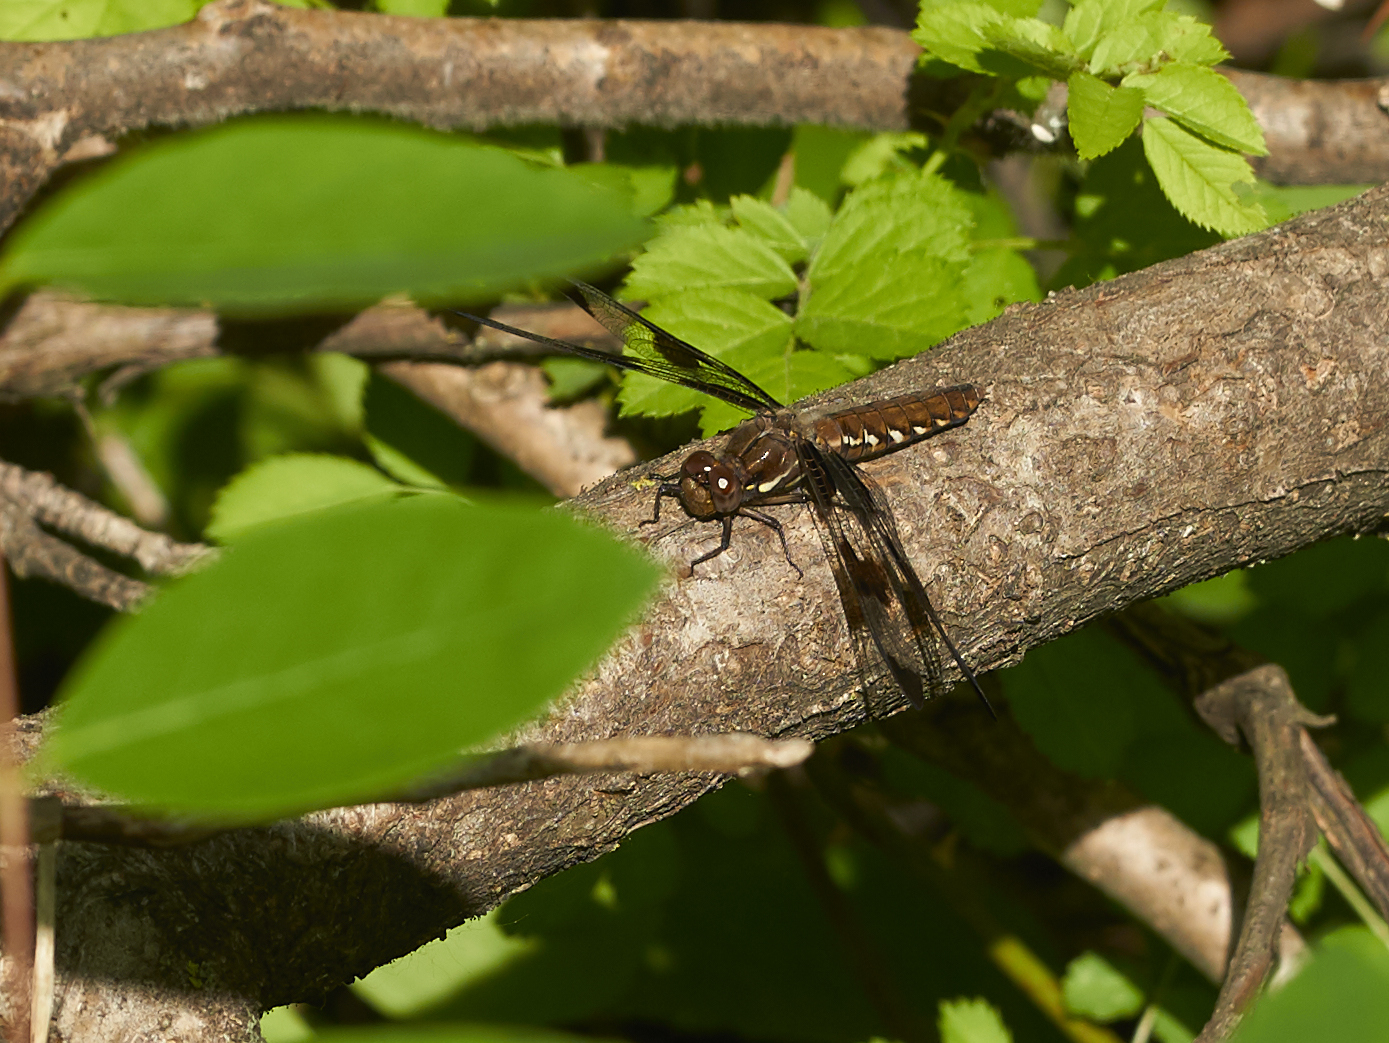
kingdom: Animalia
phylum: Arthropoda
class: Insecta
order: Odonata
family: Libellulidae
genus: Plathemis
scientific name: Plathemis lydia
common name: Common whitetail
